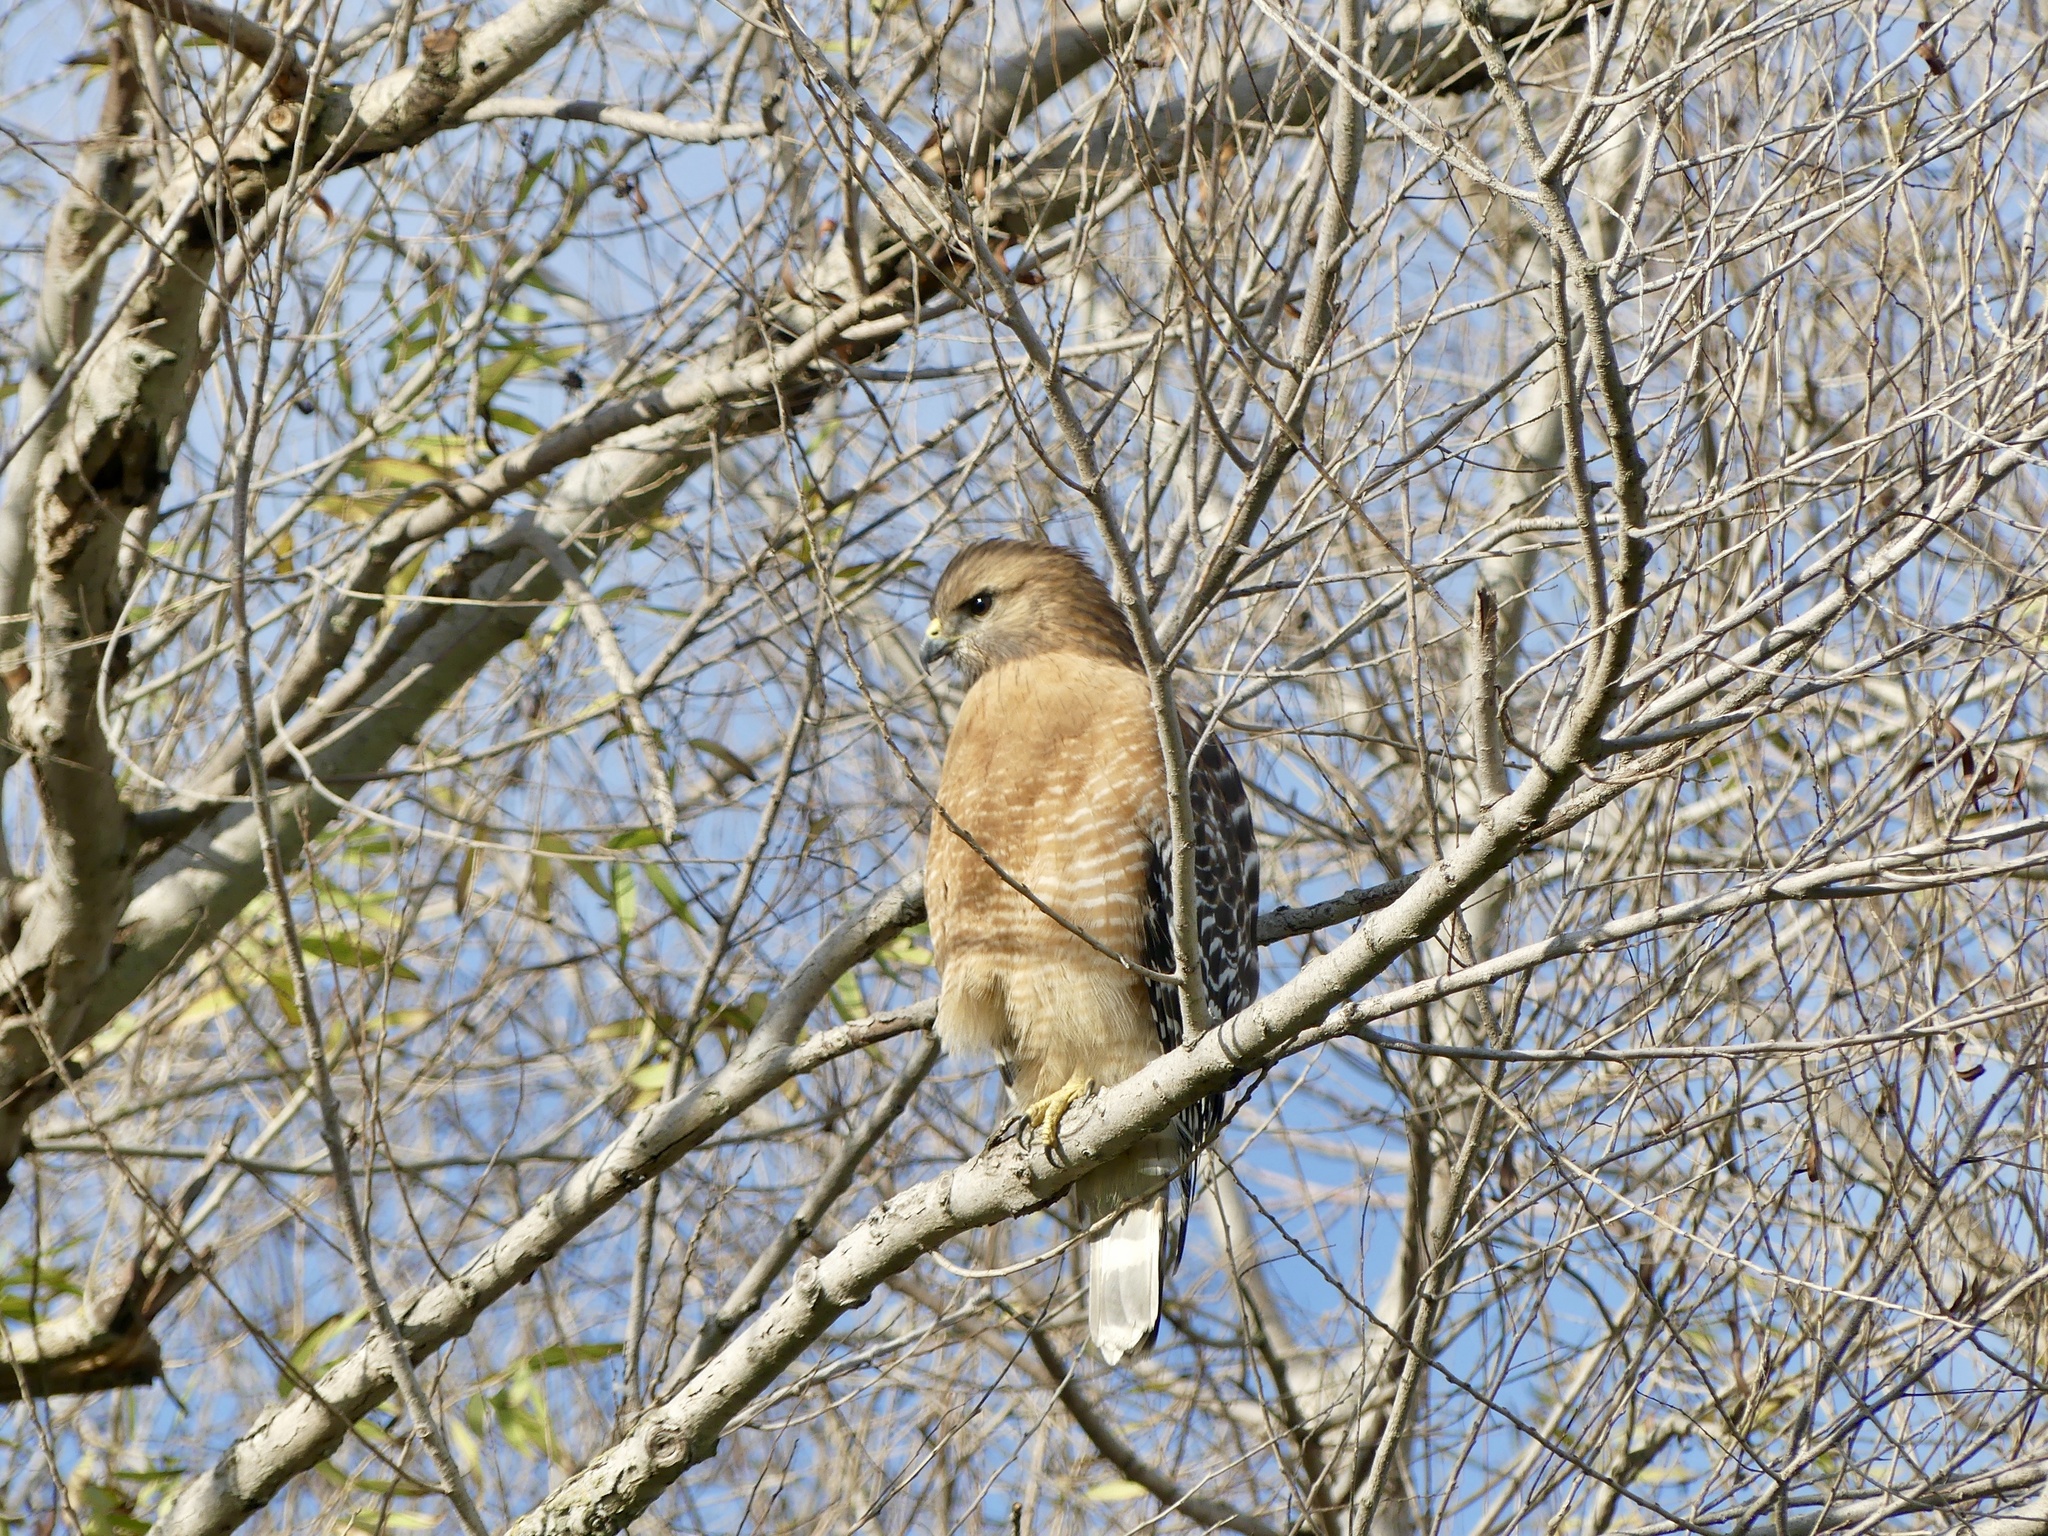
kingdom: Animalia
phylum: Chordata
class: Aves
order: Accipitriformes
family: Accipitridae
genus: Buteo
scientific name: Buteo lineatus
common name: Red-shouldered hawk
